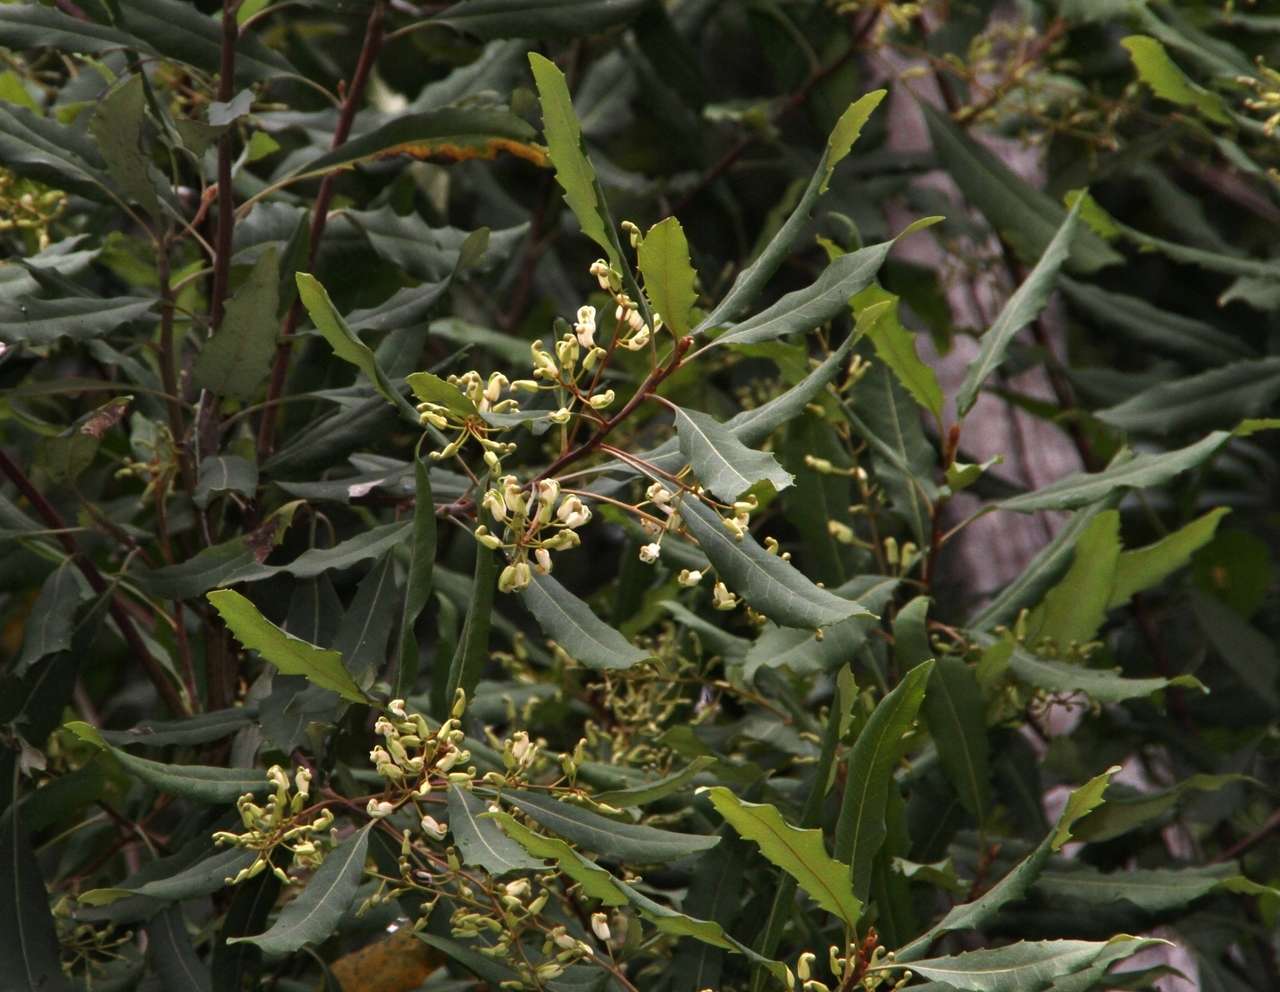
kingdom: Plantae
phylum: Tracheophyta
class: Magnoliopsida
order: Proteales
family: Proteaceae
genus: Lomatia
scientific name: Lomatia fraseri
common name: Forest lomatia
